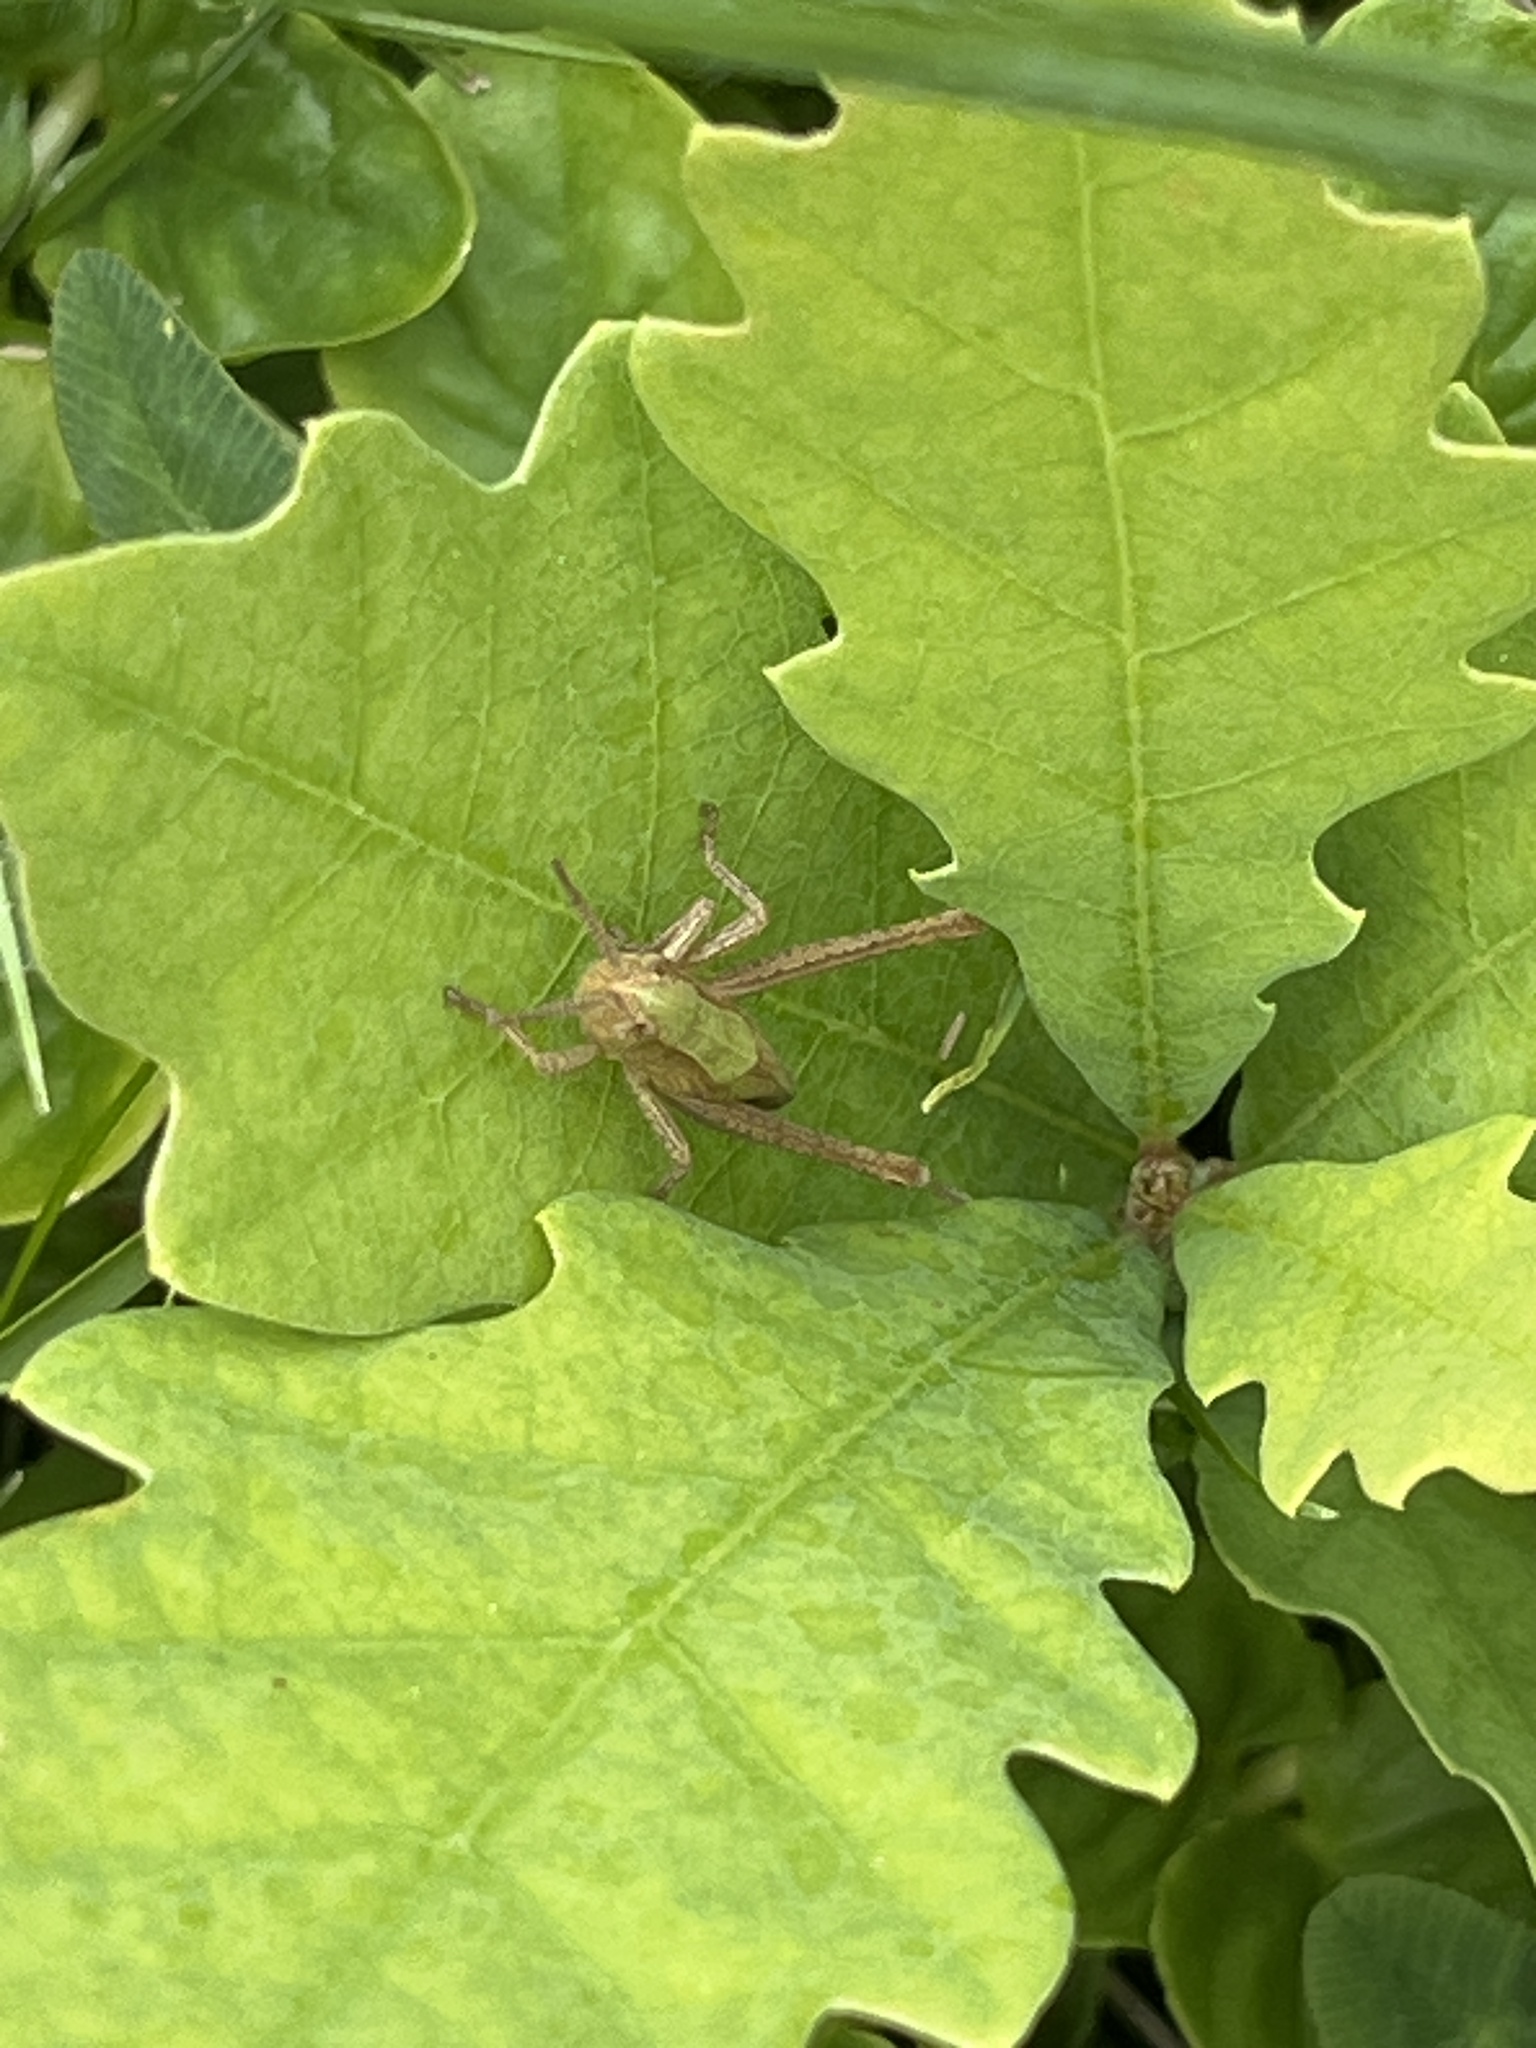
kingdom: Animalia
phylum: Arthropoda
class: Insecta
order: Orthoptera
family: Acrididae
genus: Chorthippus
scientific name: Chorthippus dorsatus
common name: Steppe grasshopper
